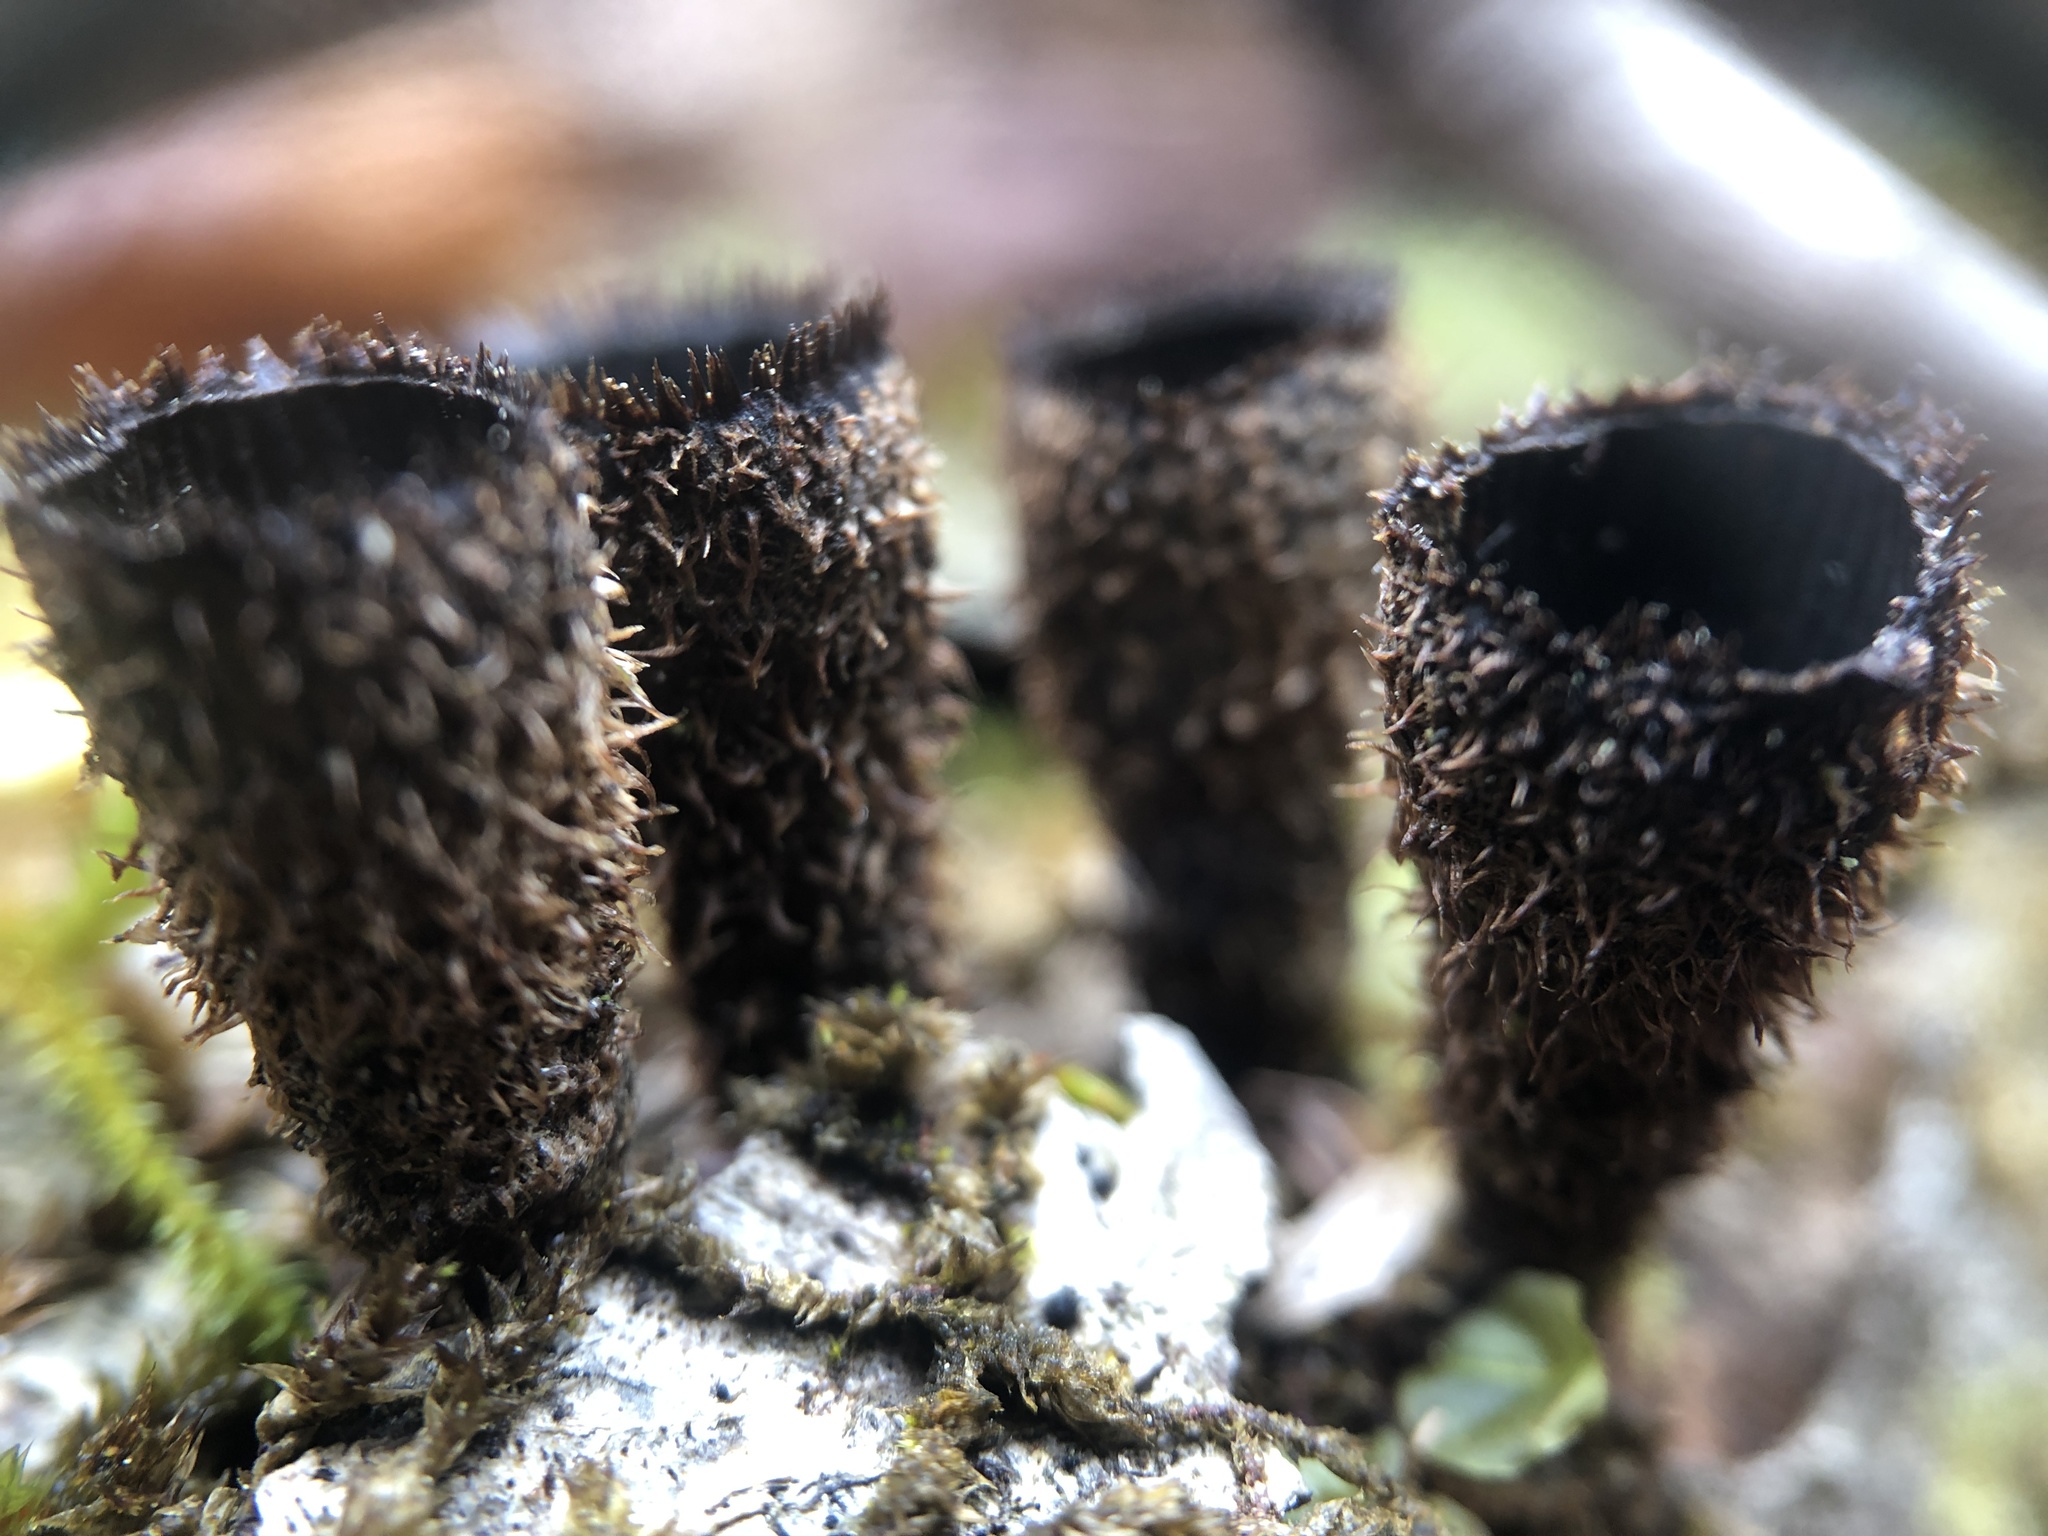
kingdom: Fungi
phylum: Basidiomycota
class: Agaricomycetes
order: Agaricales
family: Agaricaceae
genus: Cyathus
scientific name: Cyathus striatus
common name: Fluted bird's nest
